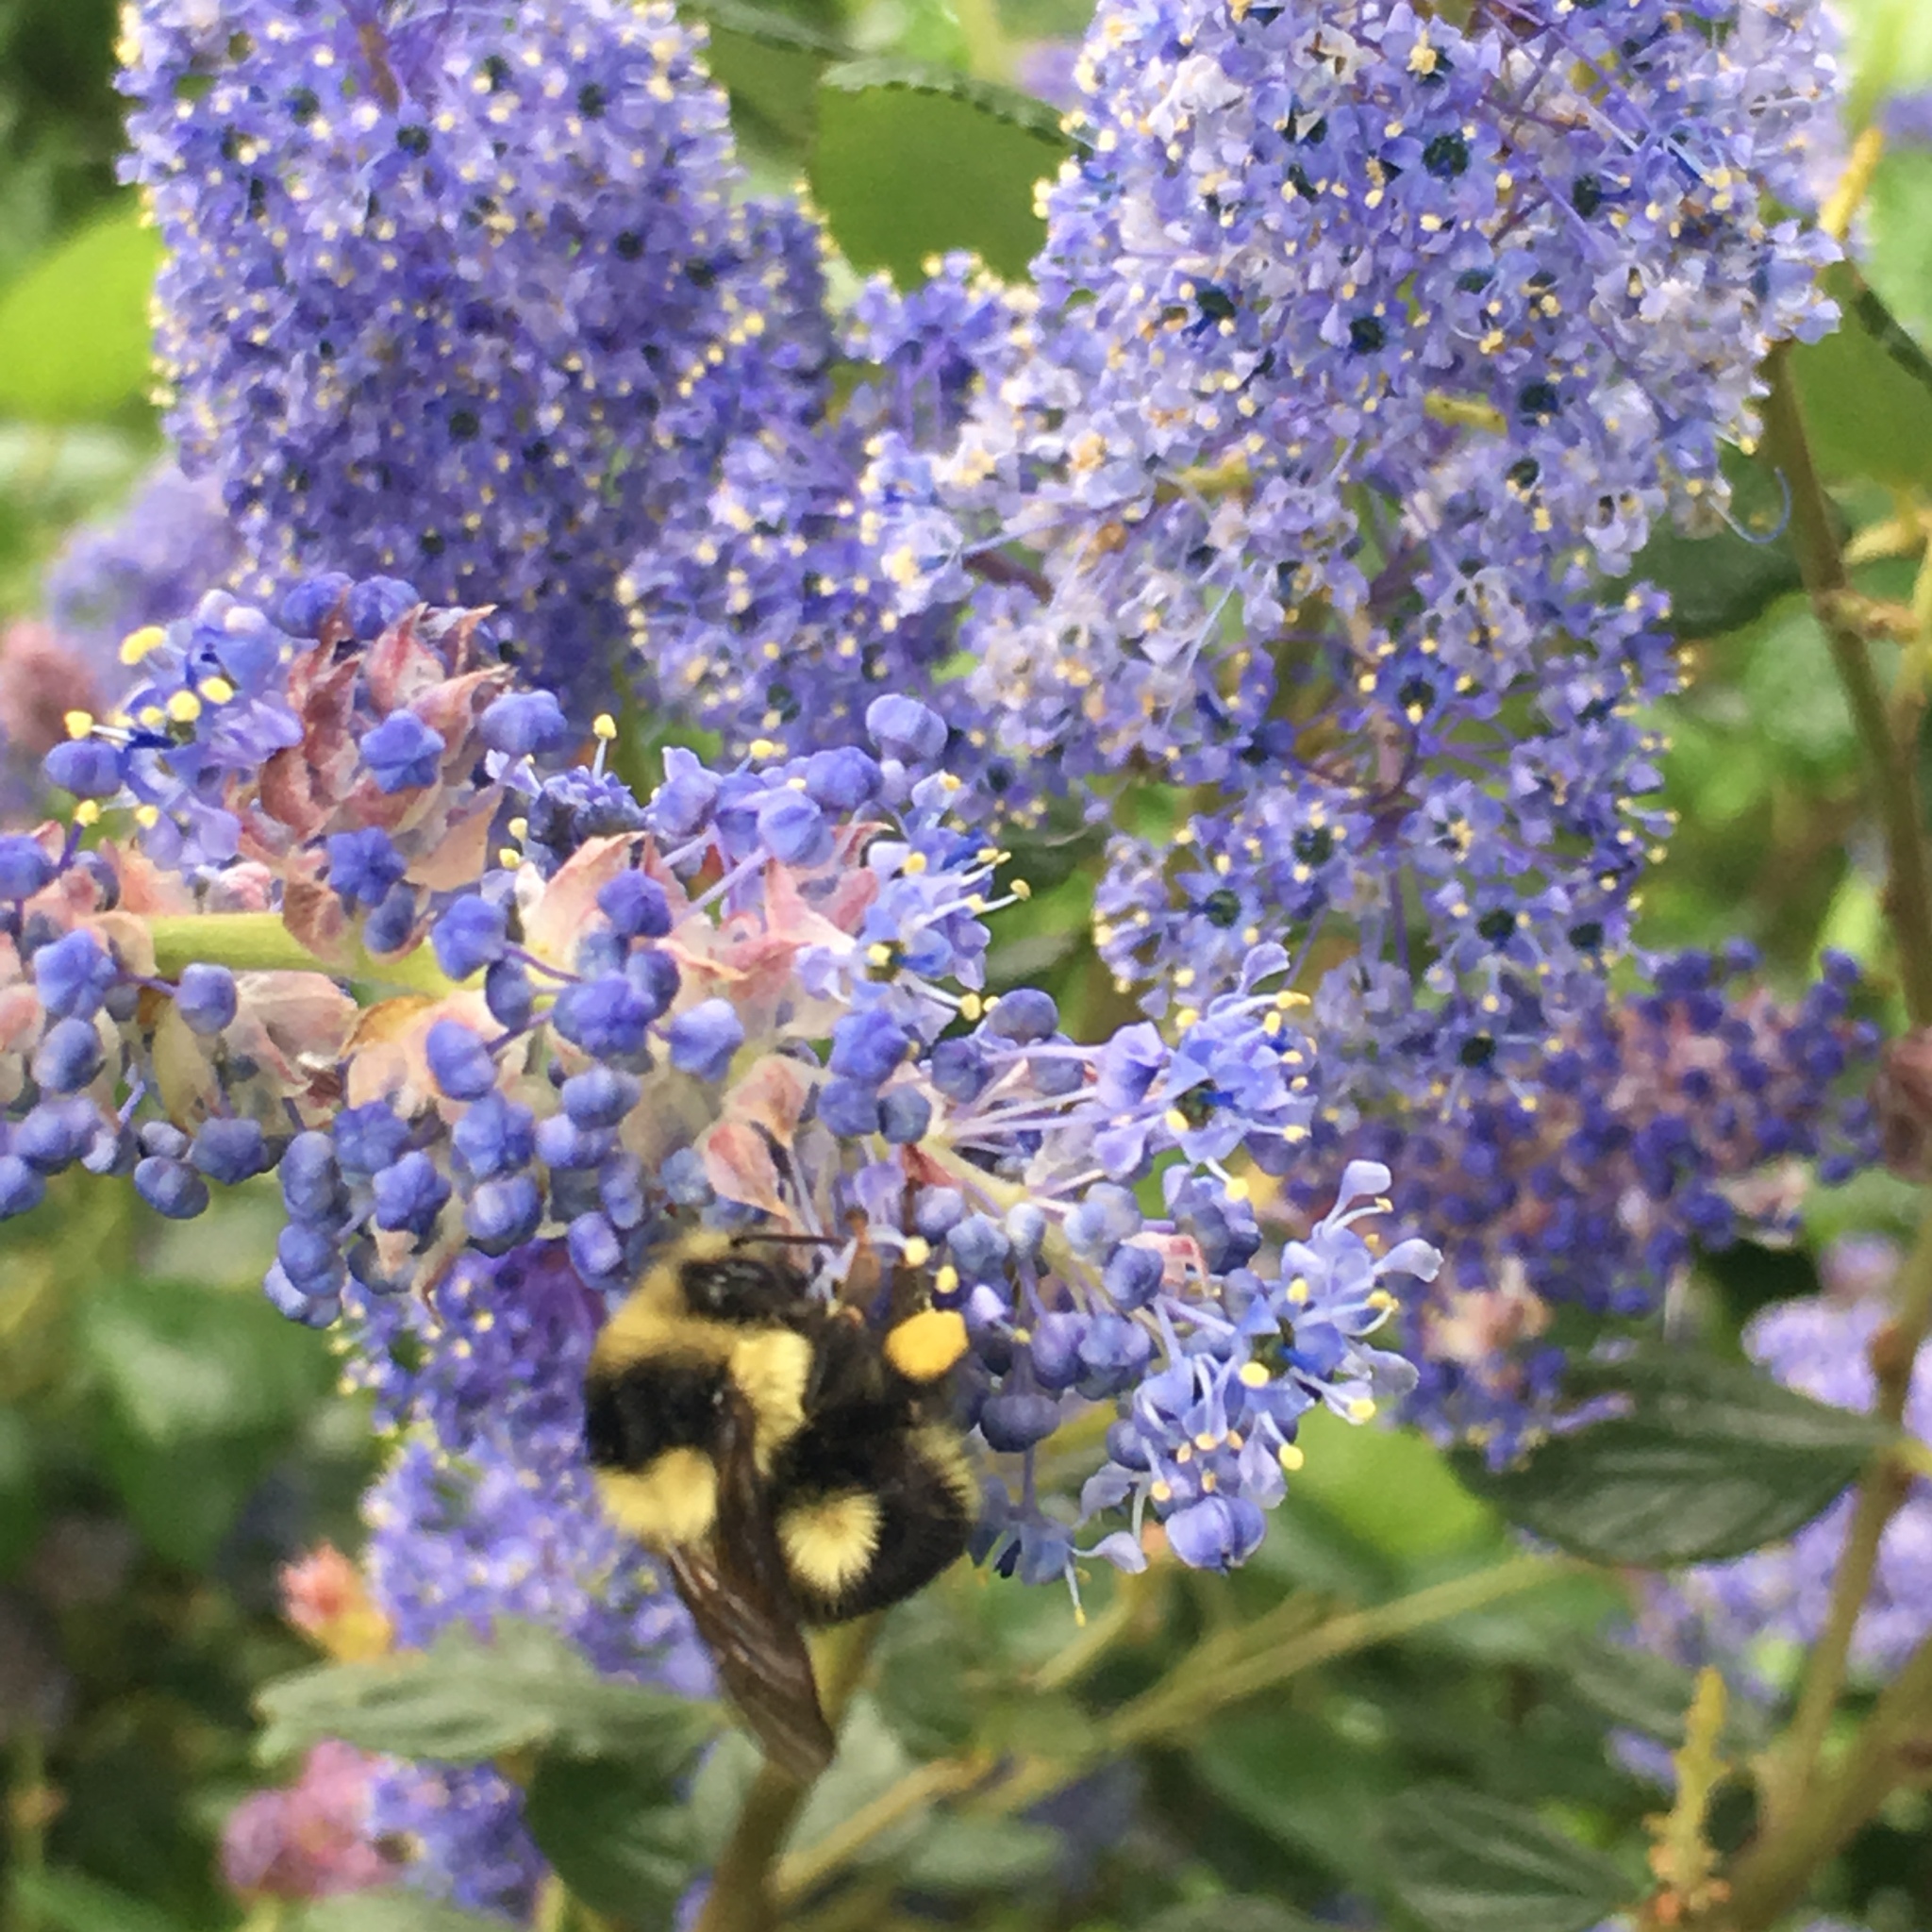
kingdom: Animalia
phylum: Arthropoda
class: Insecta
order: Hymenoptera
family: Apidae
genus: Bombus
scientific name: Bombus melanopygus
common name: Black tail bumble bee
